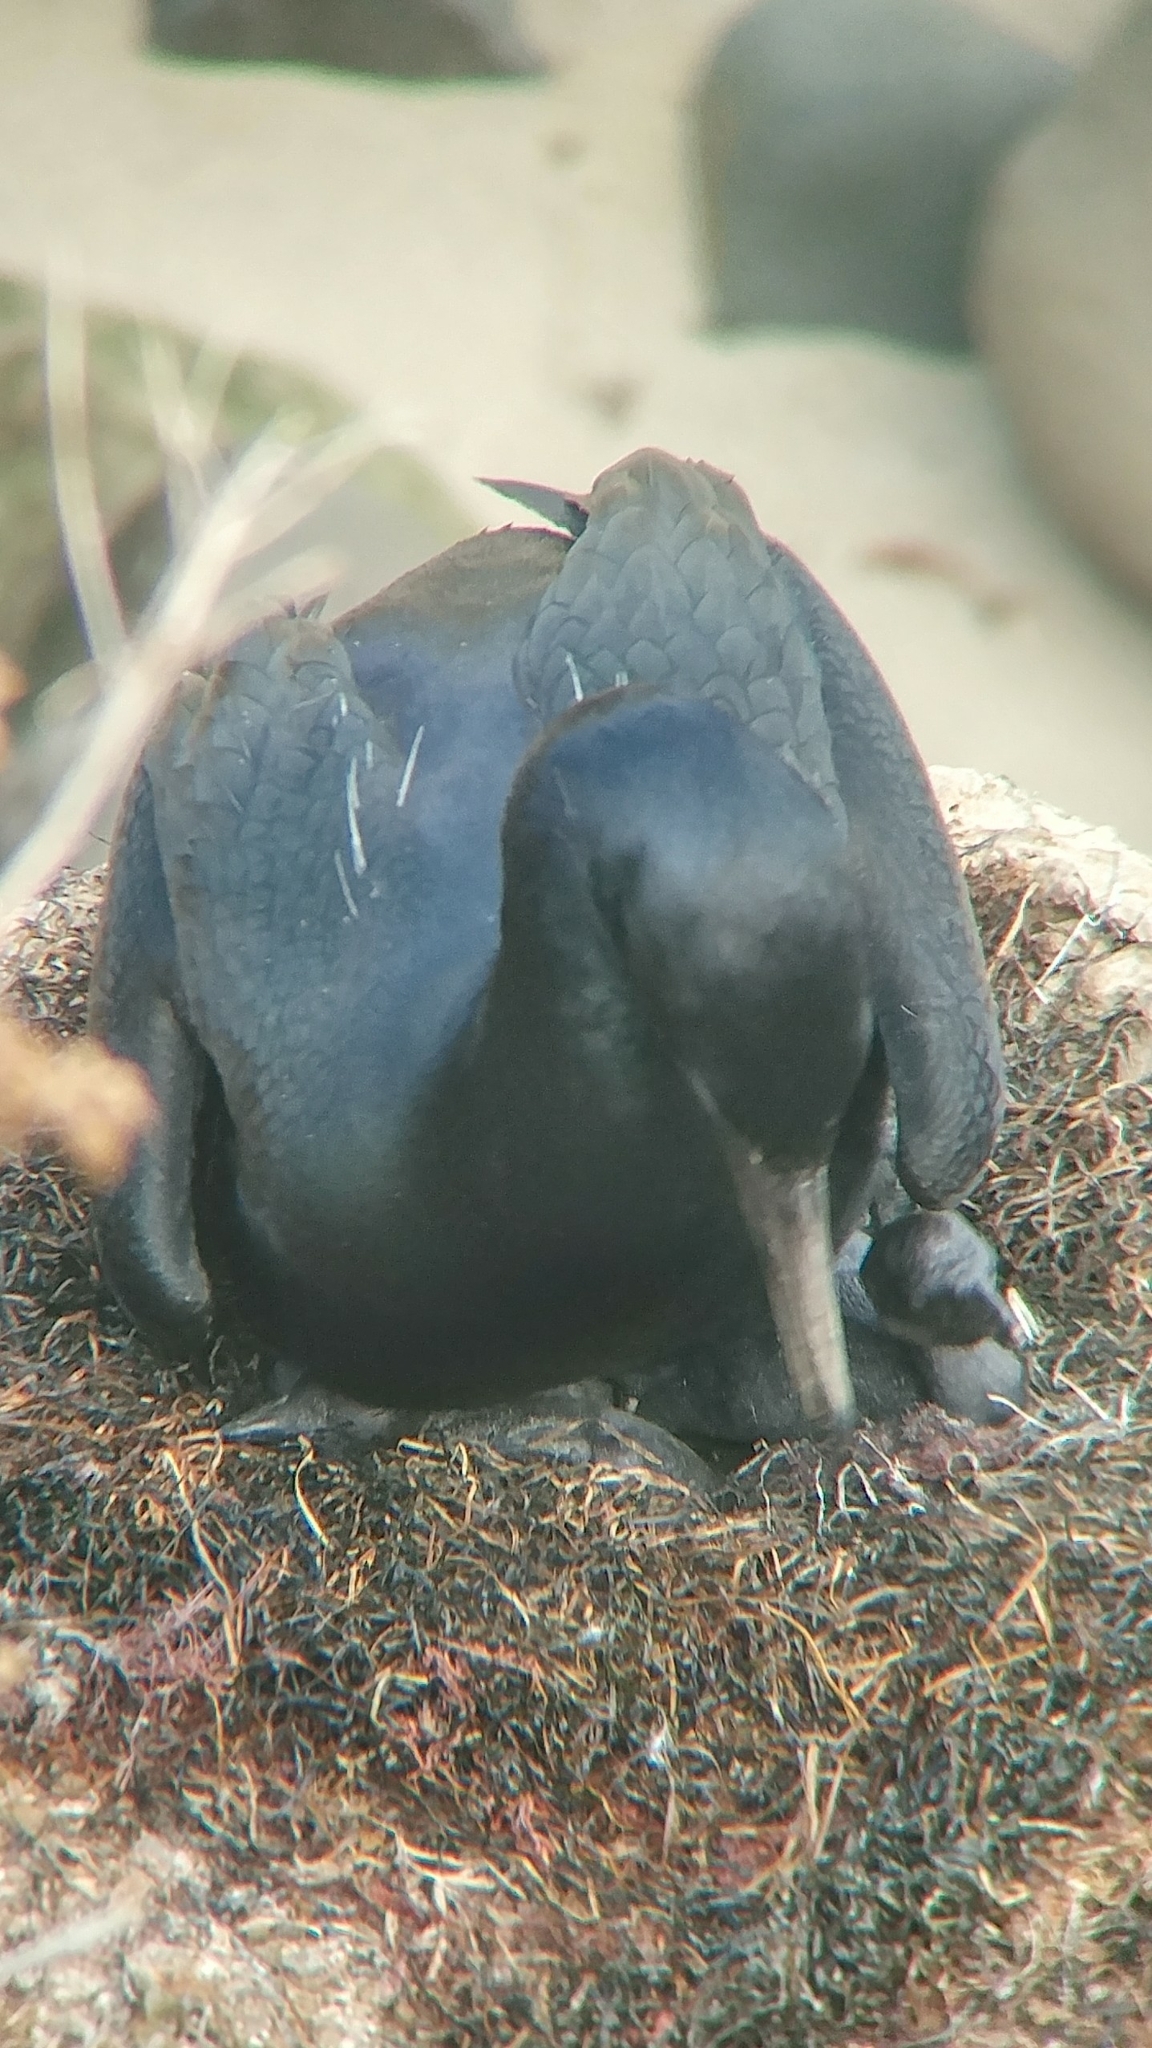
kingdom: Animalia
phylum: Chordata
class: Aves
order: Suliformes
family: Phalacrocoracidae
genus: Urile
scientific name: Urile penicillatus
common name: Brandt's cormorant
